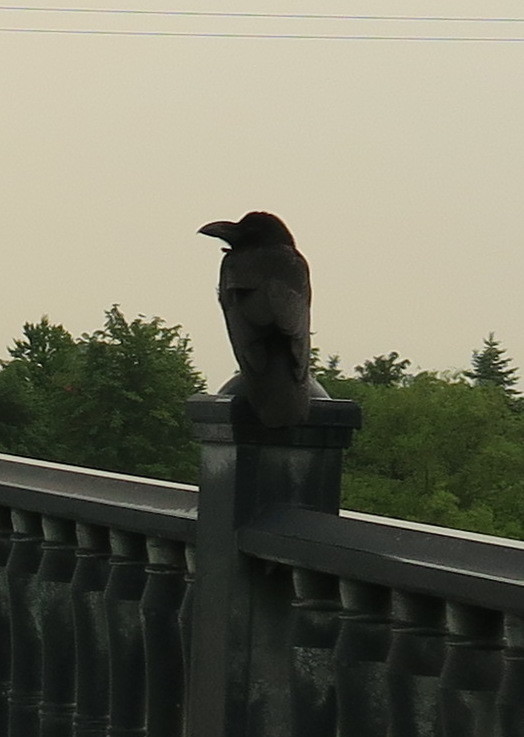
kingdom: Animalia
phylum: Chordata
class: Aves
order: Passeriformes
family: Corvidae
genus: Corvus
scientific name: Corvus macrorhynchos
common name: Large-billed crow
